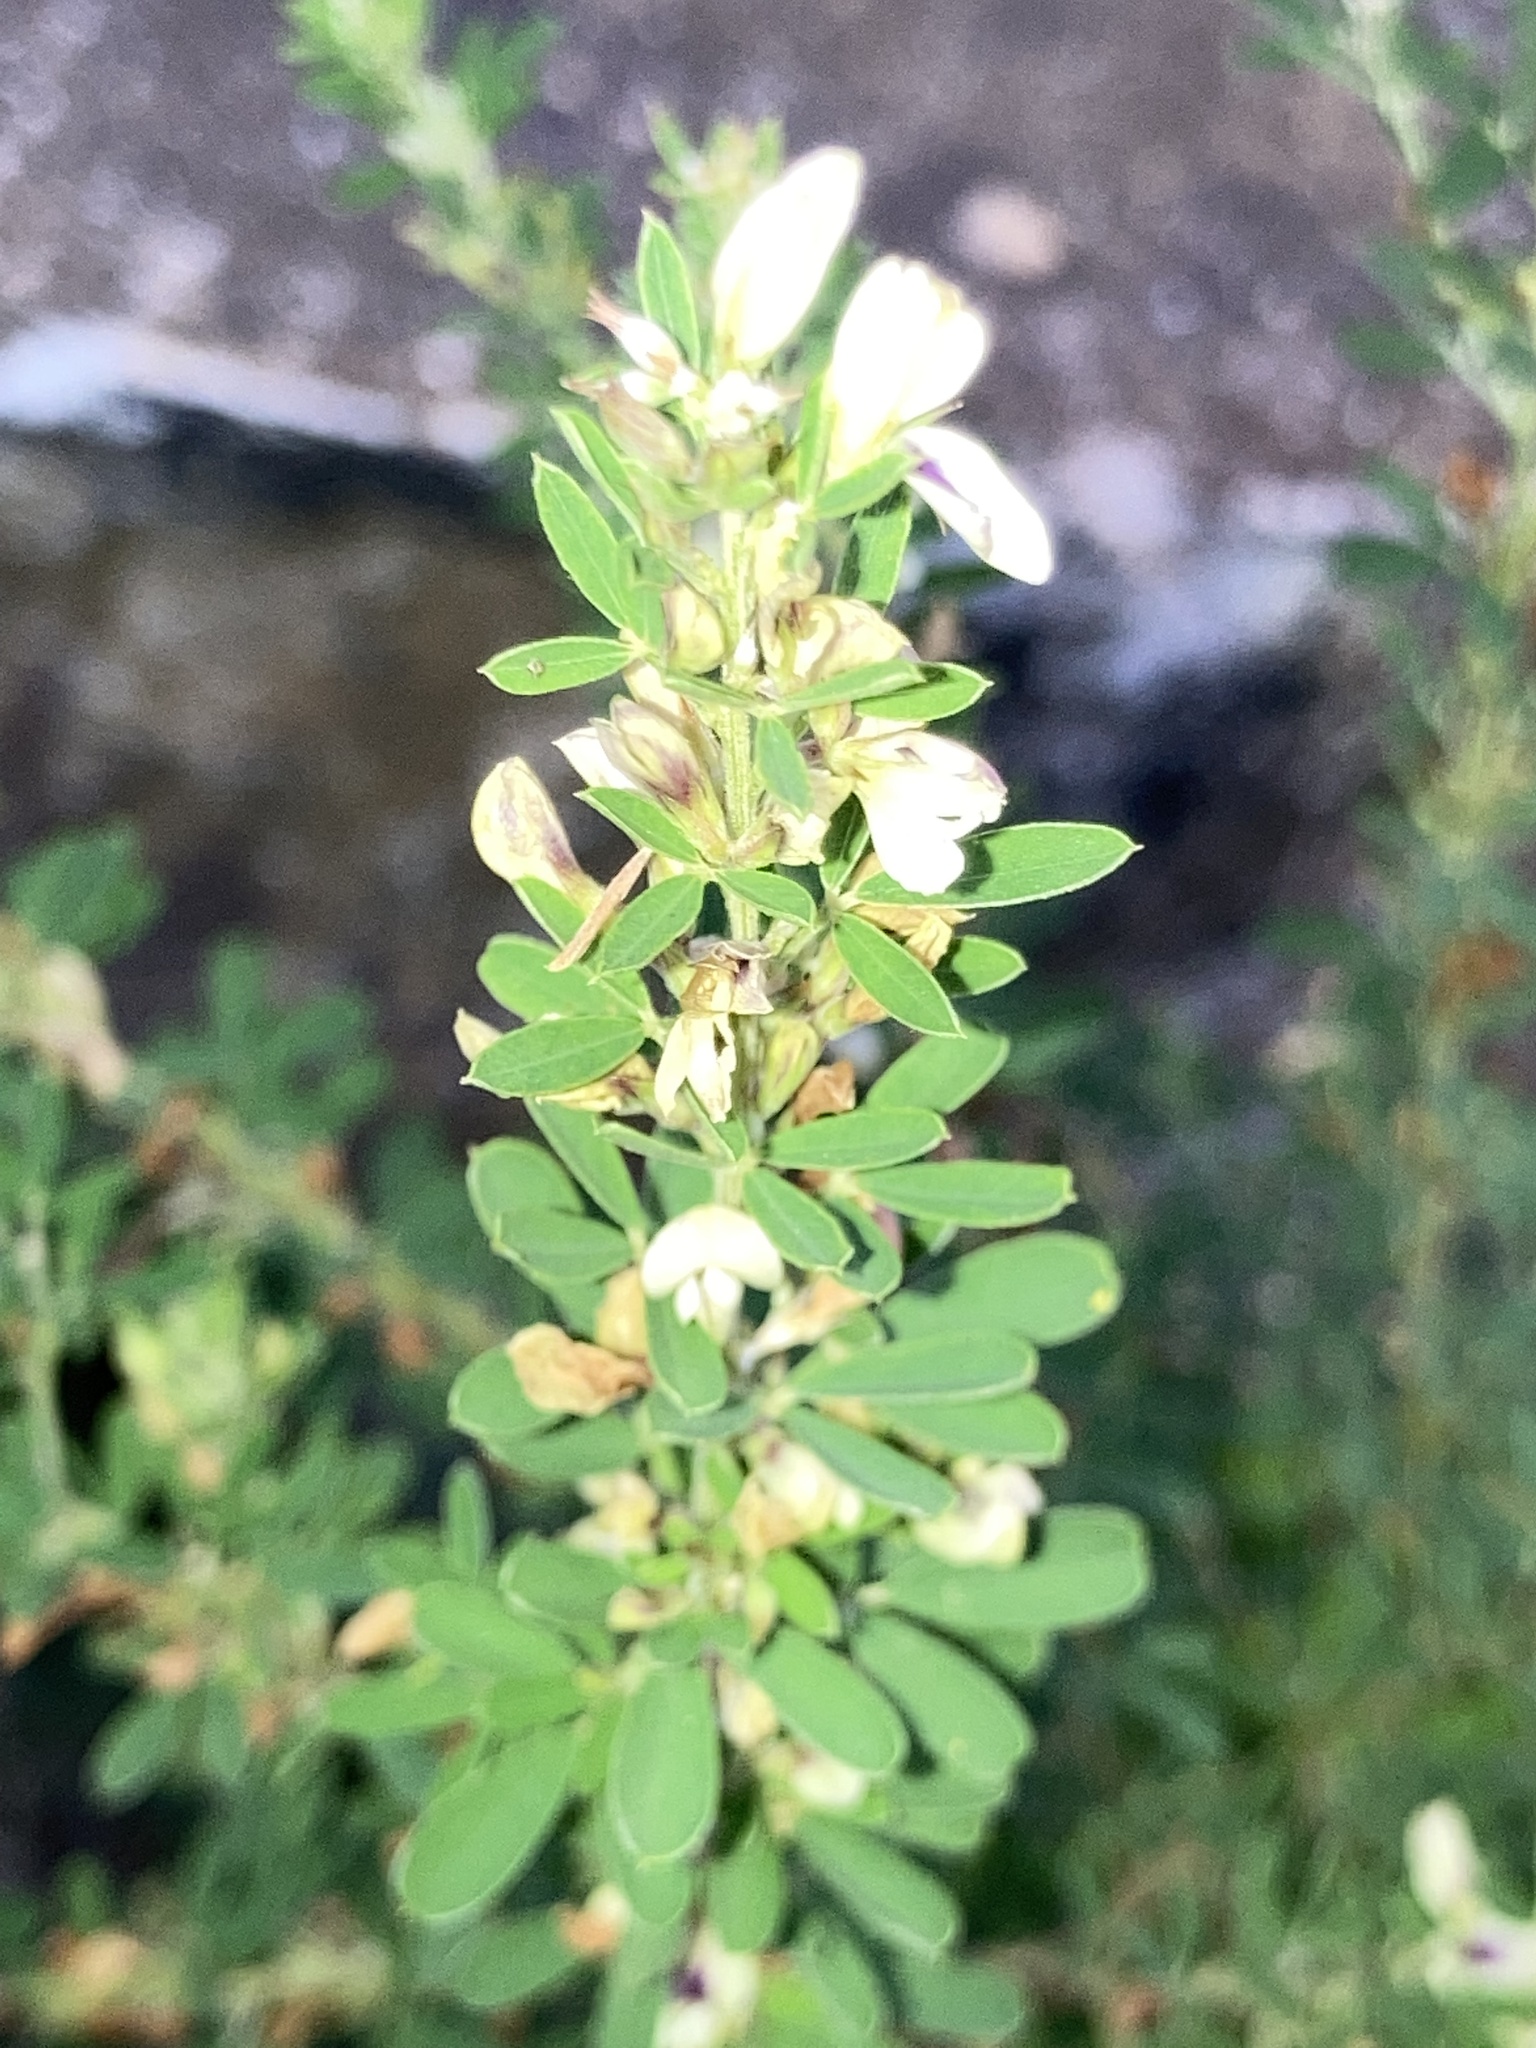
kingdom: Plantae
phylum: Tracheophyta
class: Magnoliopsida
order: Fabales
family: Fabaceae
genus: Lespedeza
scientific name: Lespedeza cuneata
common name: Chinese bush-clover
